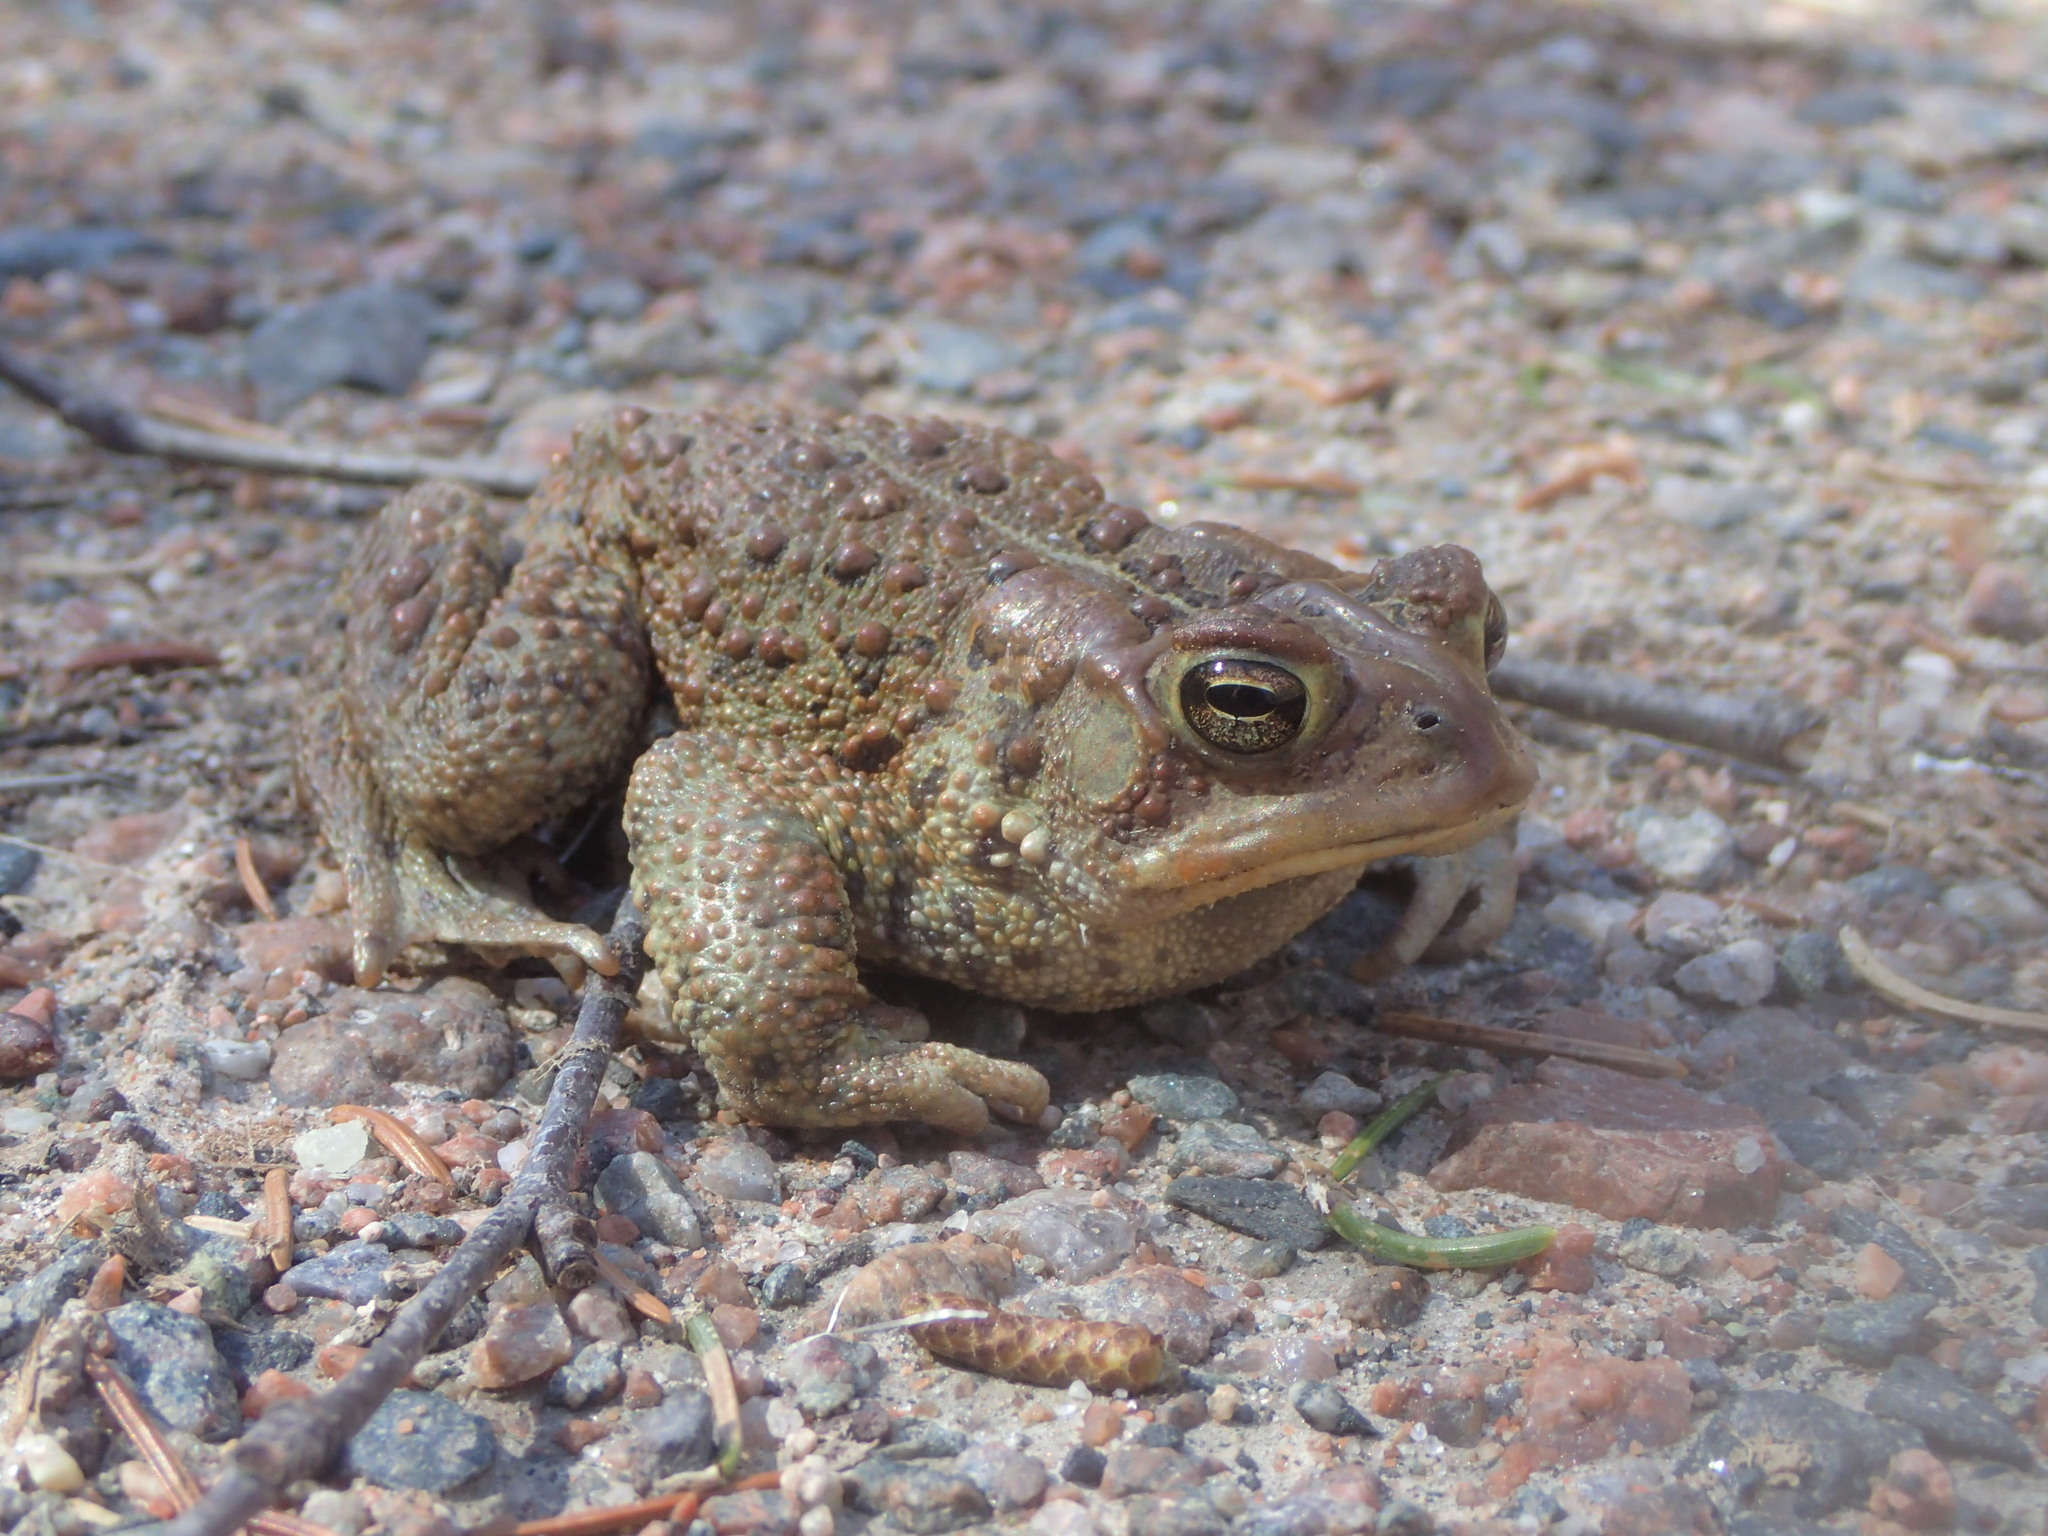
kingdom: Animalia
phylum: Chordata
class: Amphibia
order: Anura
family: Bufonidae
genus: Anaxyrus
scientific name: Anaxyrus americanus
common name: American toad
